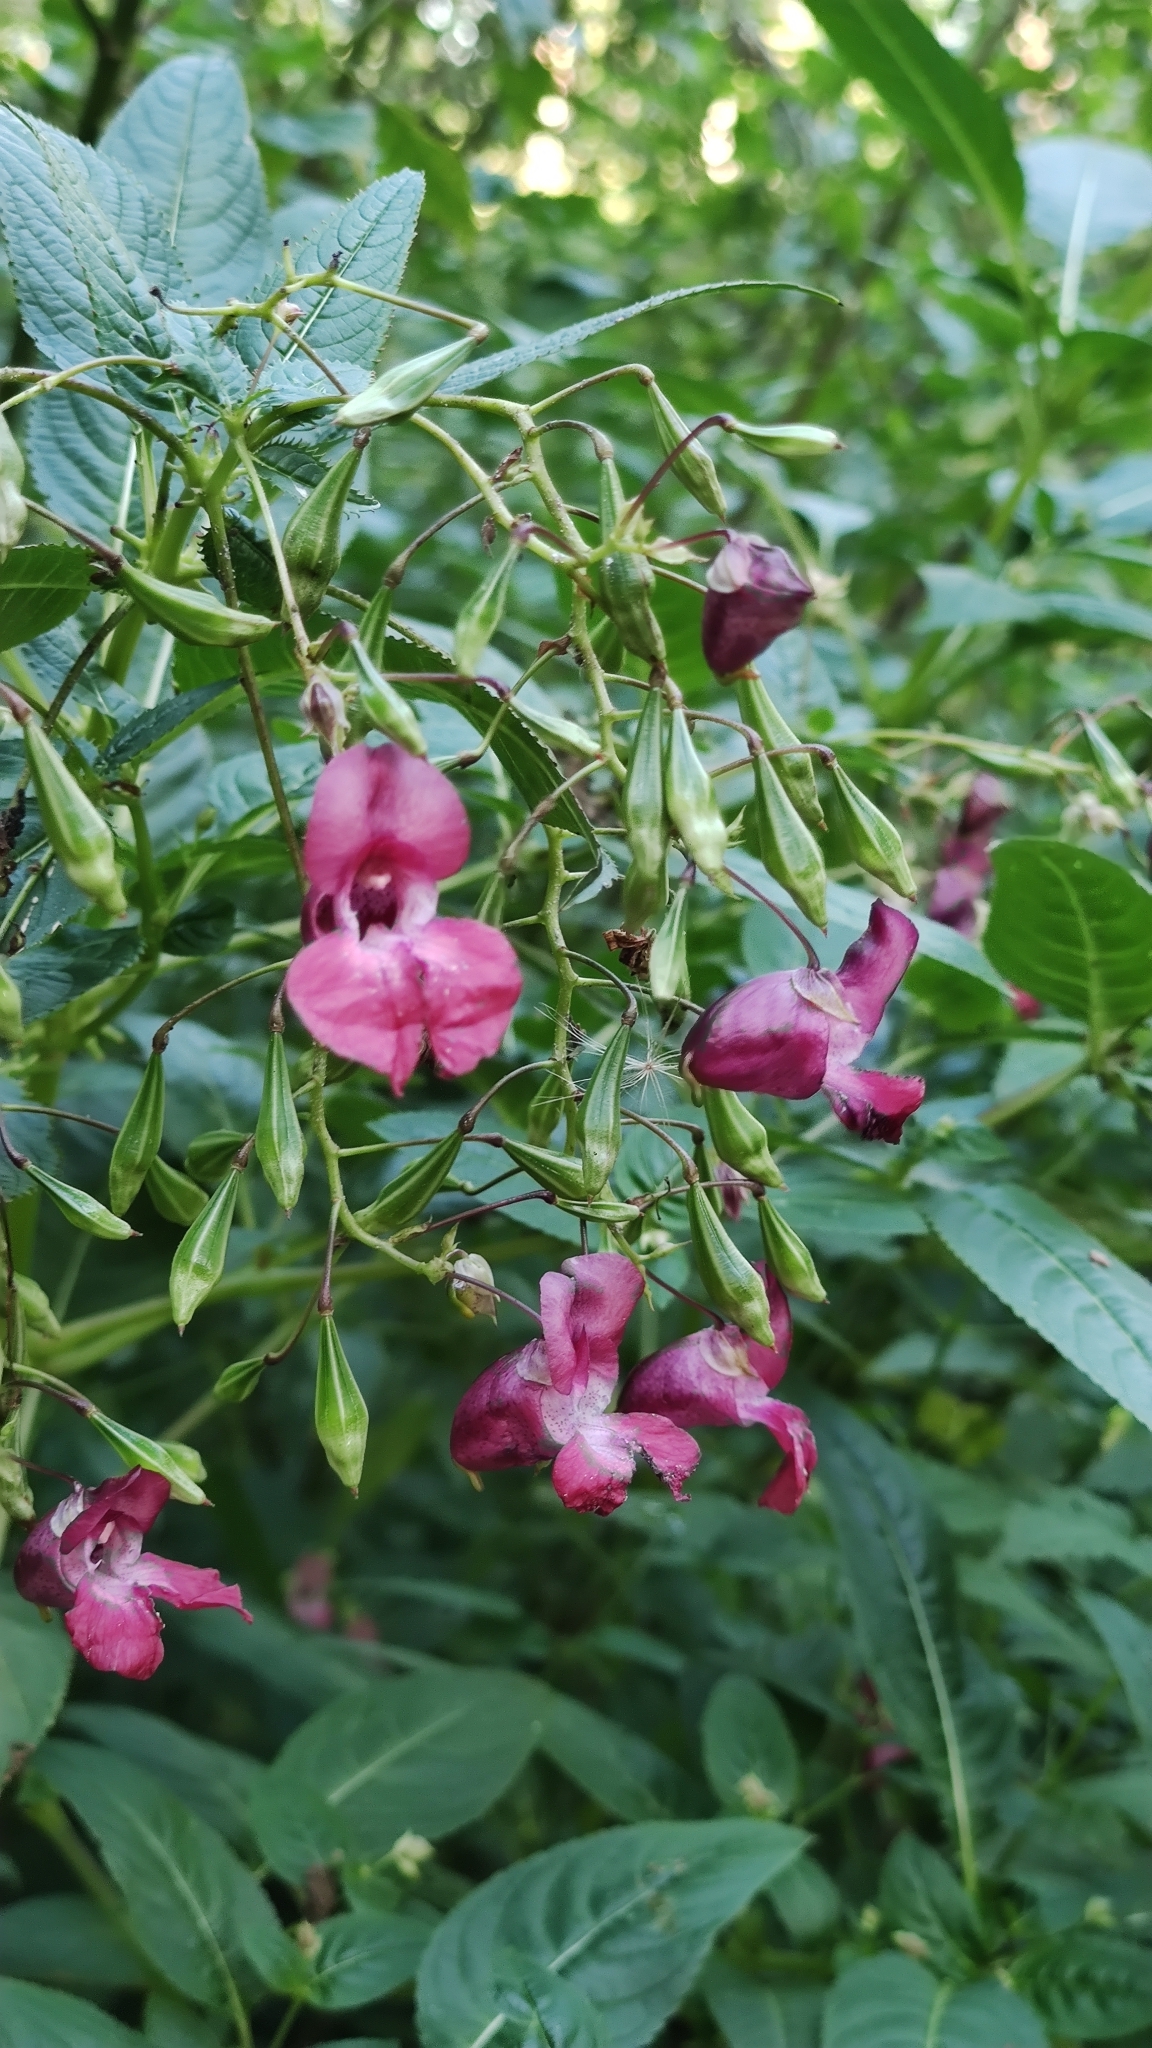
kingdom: Plantae
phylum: Tracheophyta
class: Magnoliopsida
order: Ericales
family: Balsaminaceae
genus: Impatiens
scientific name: Impatiens glandulifera
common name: Himalayan balsam
